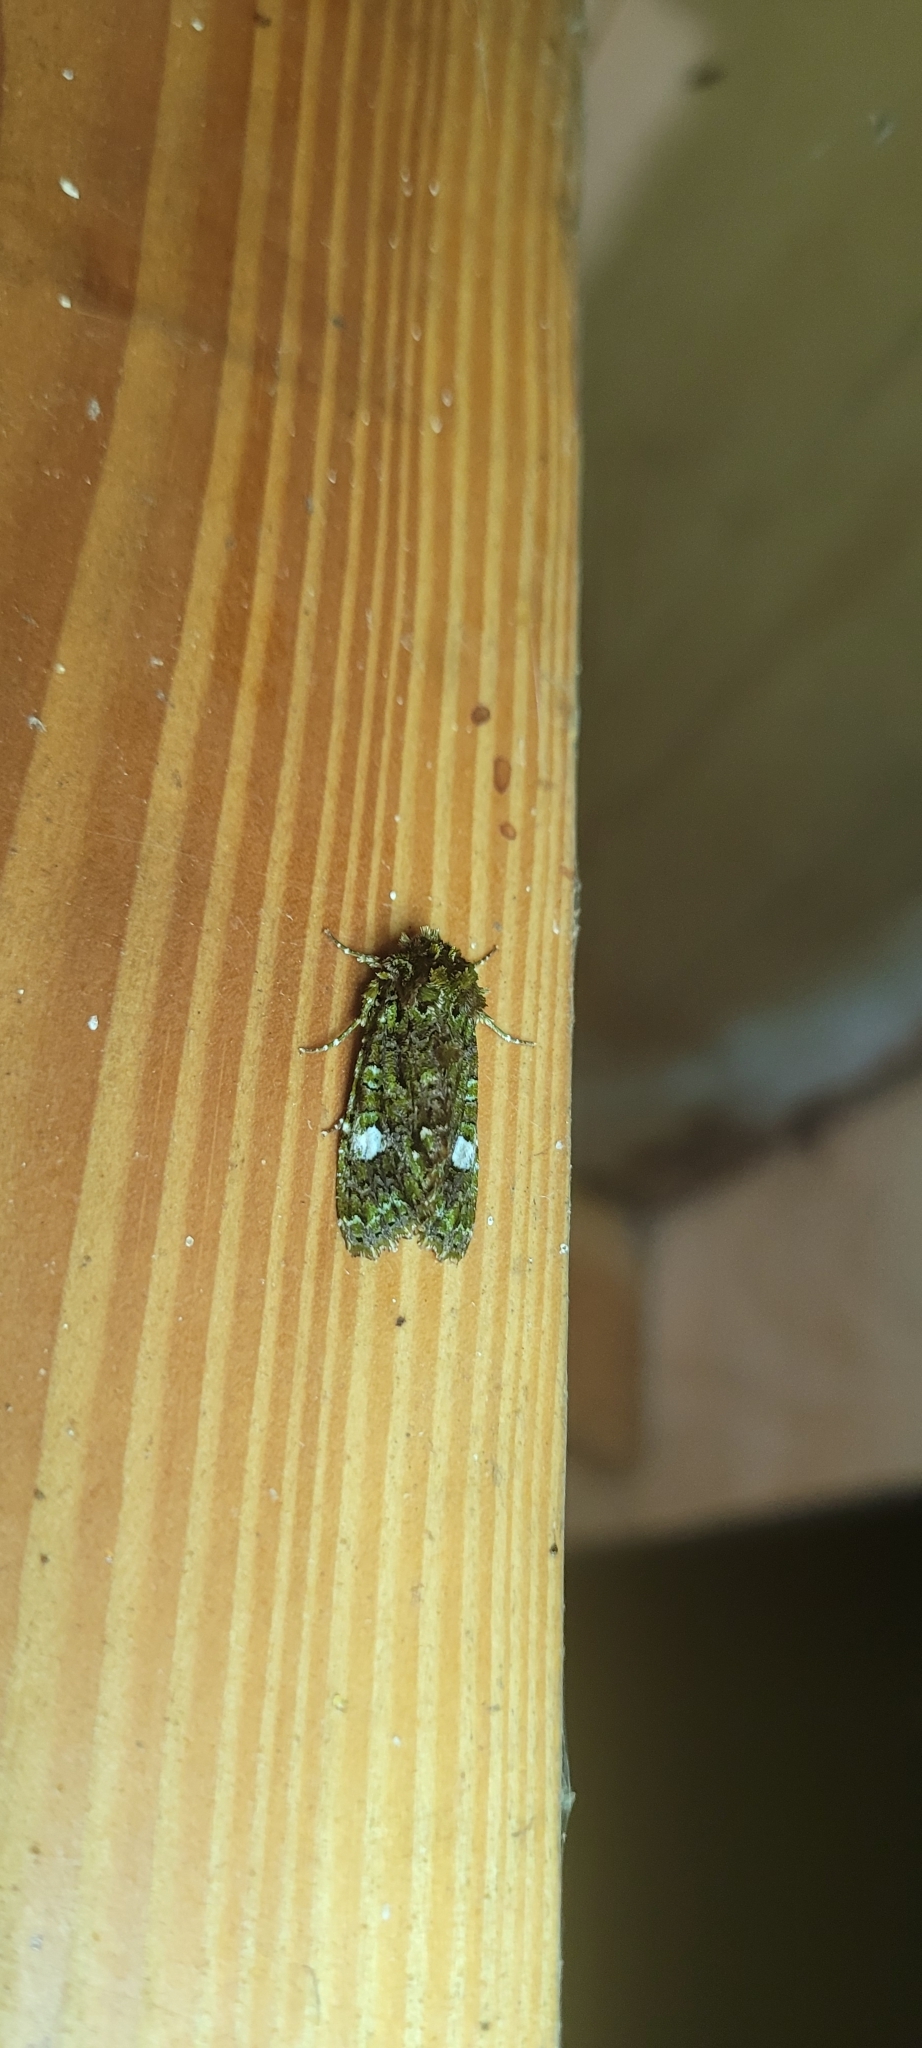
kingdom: Animalia
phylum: Arthropoda
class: Insecta
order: Lepidoptera
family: Noctuidae
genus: Albirenia
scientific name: Albirenia
